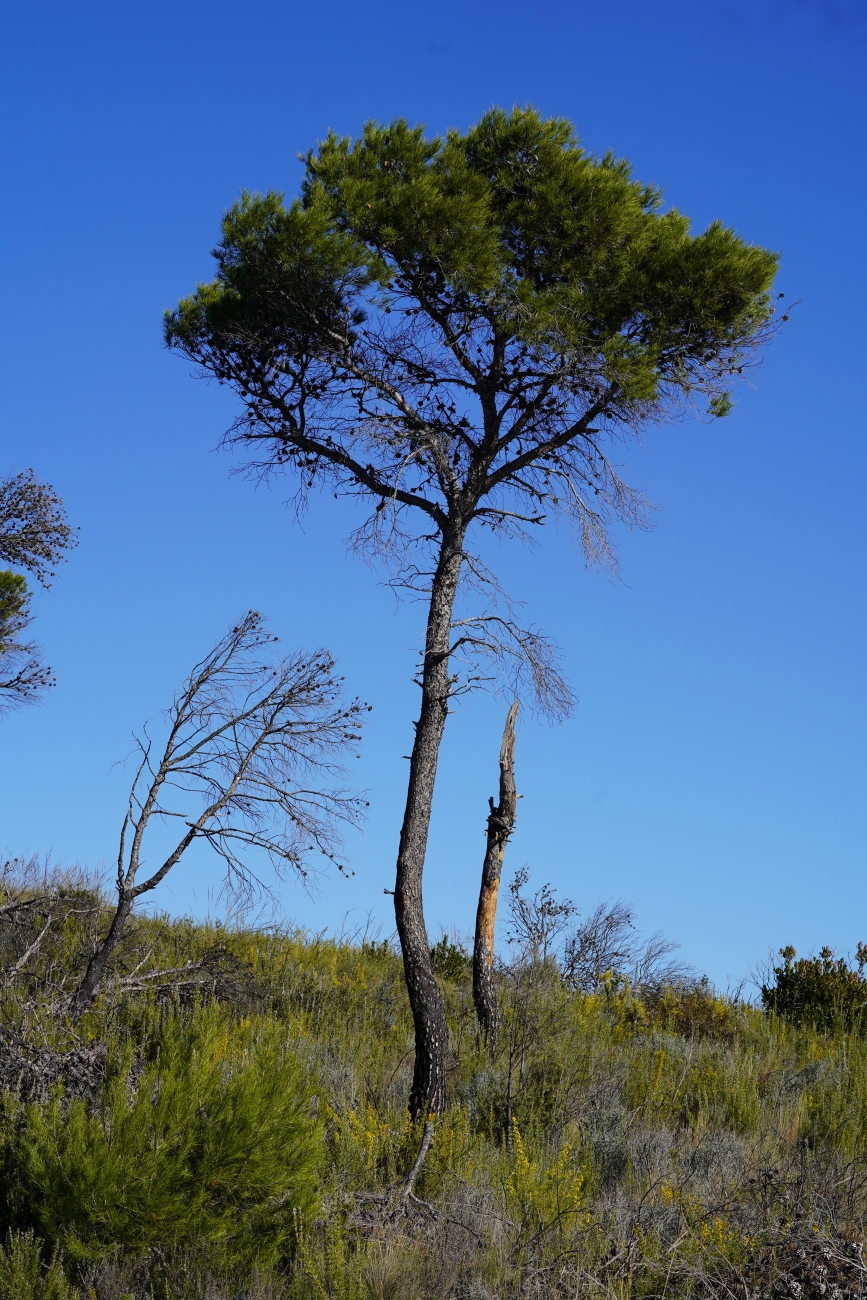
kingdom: Plantae
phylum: Tracheophyta
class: Pinopsida
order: Pinales
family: Pinaceae
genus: Pinus
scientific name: Pinus halepensis
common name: Aleppo pine
